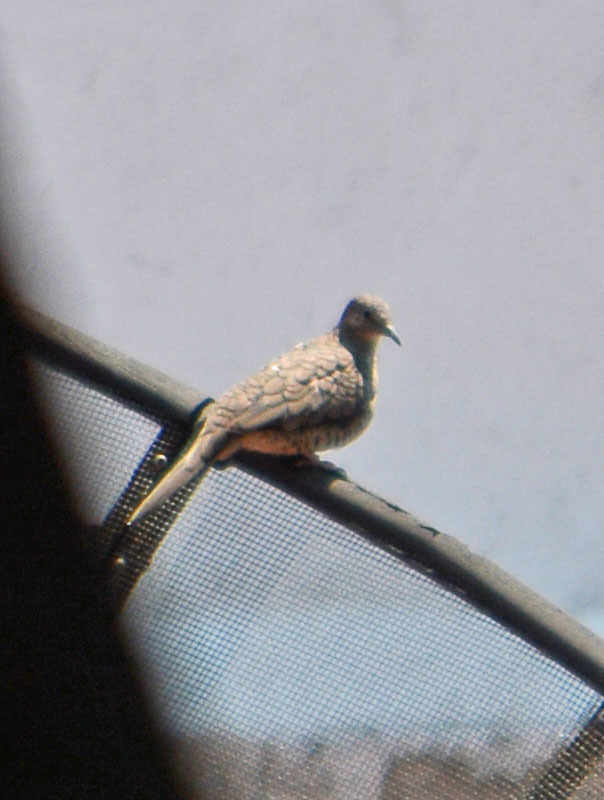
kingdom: Animalia
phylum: Chordata
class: Aves
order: Columbiformes
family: Columbidae
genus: Columbina
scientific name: Columbina inca
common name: Inca dove
